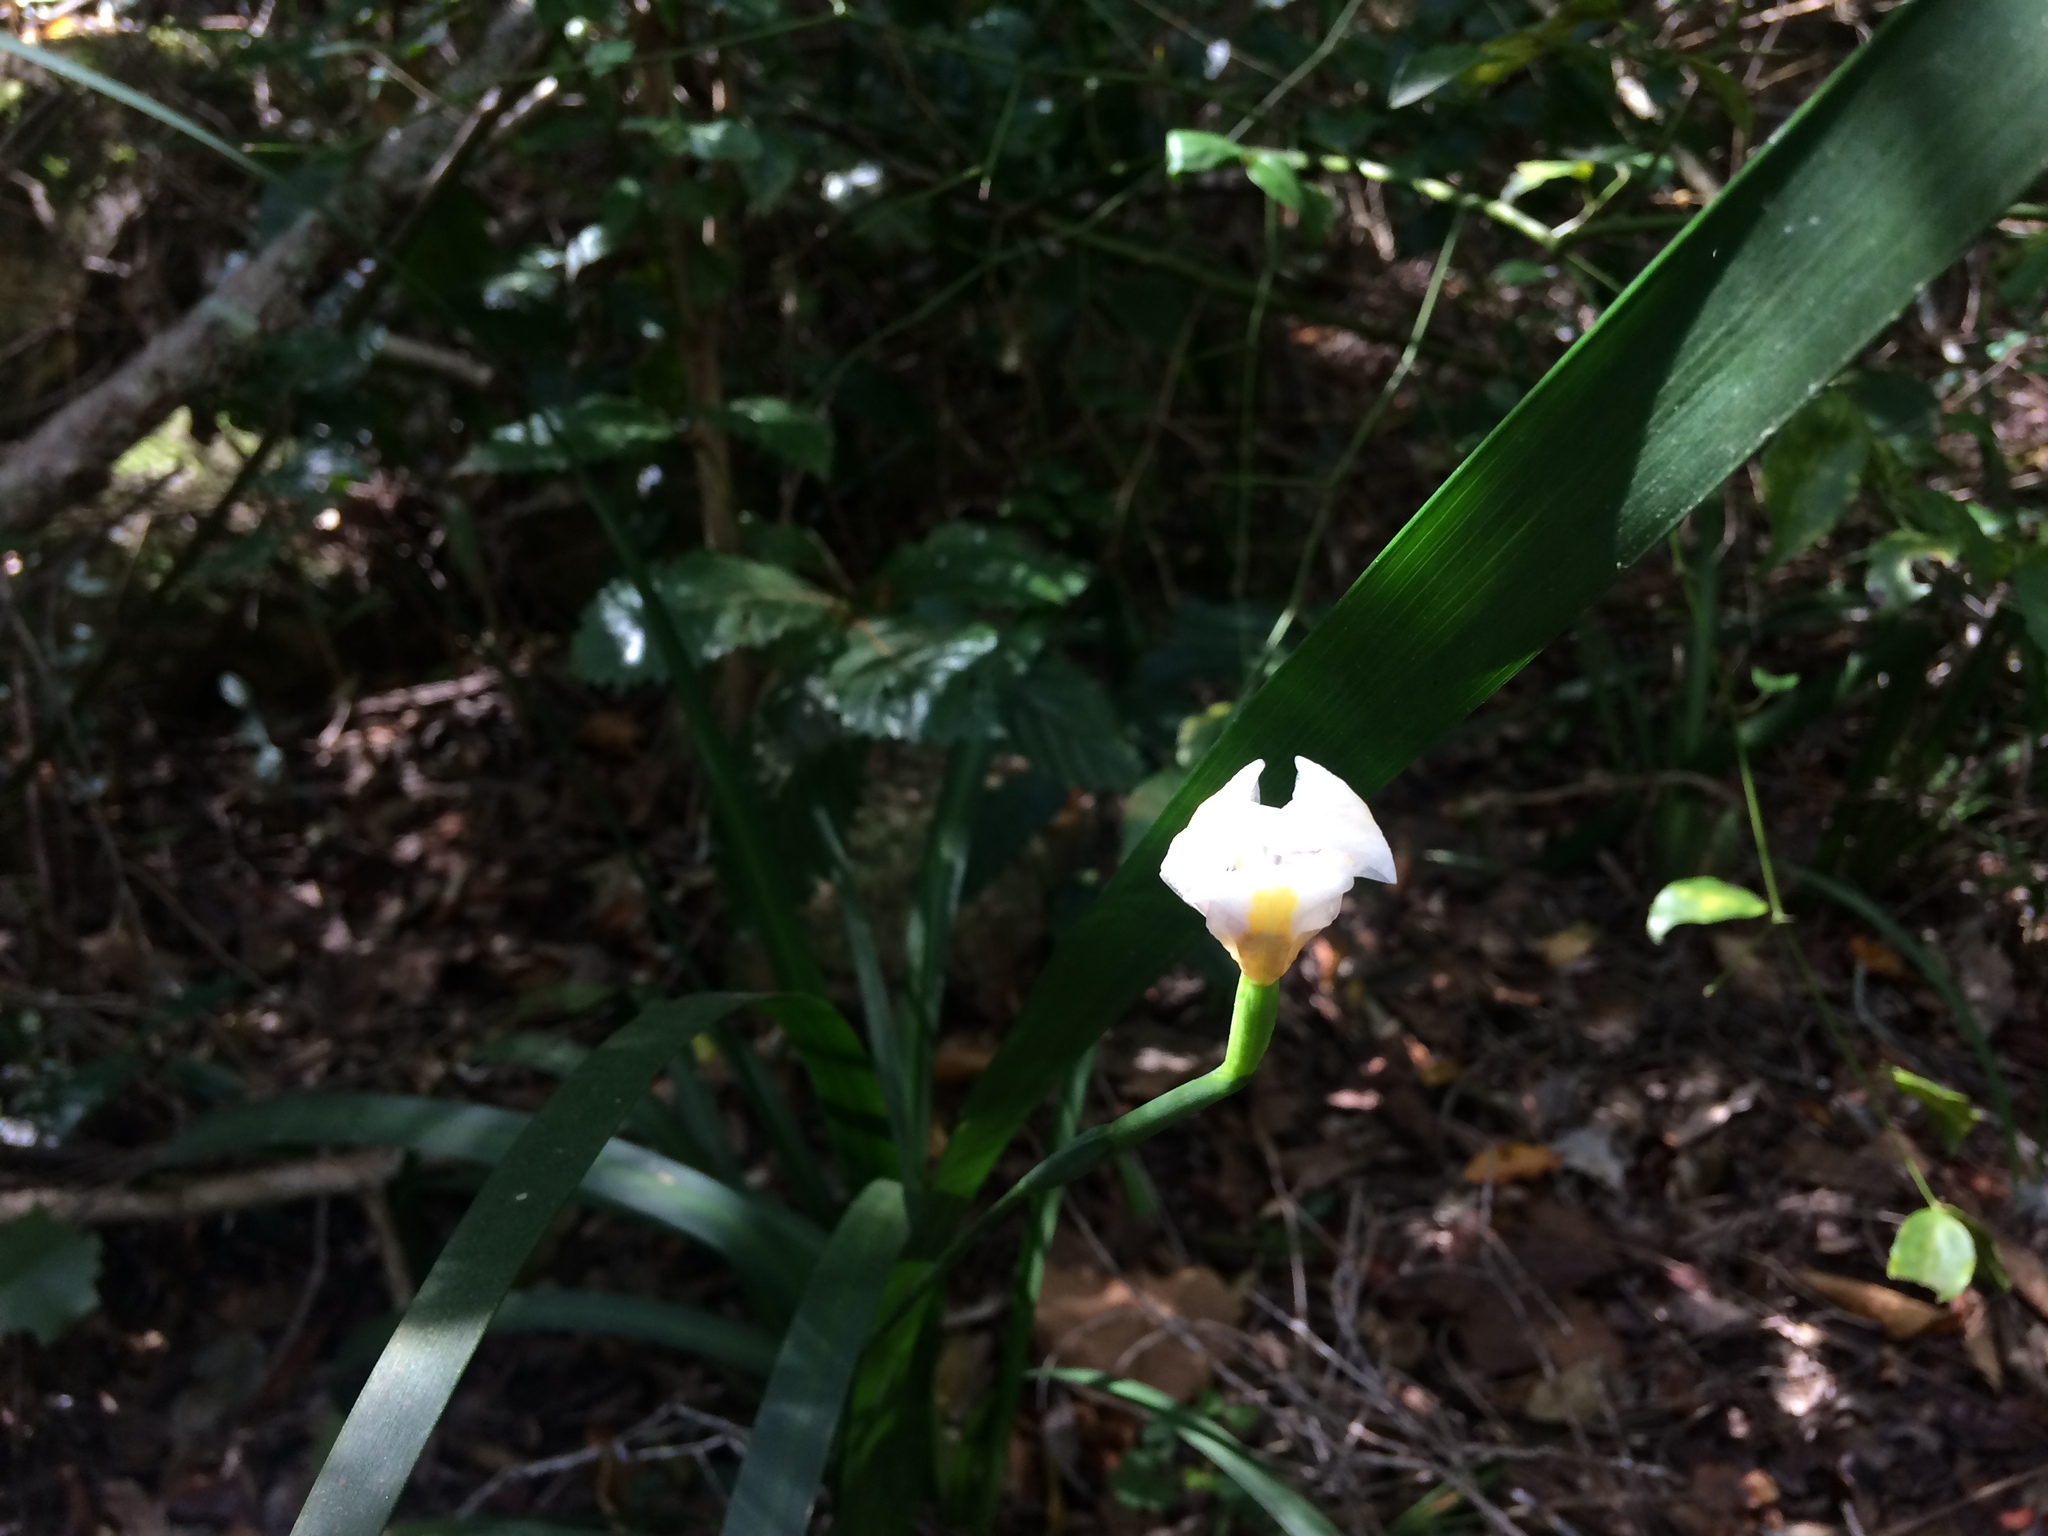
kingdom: Plantae
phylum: Tracheophyta
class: Liliopsida
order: Asparagales
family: Iridaceae
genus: Dietes
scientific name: Dietes iridioides
